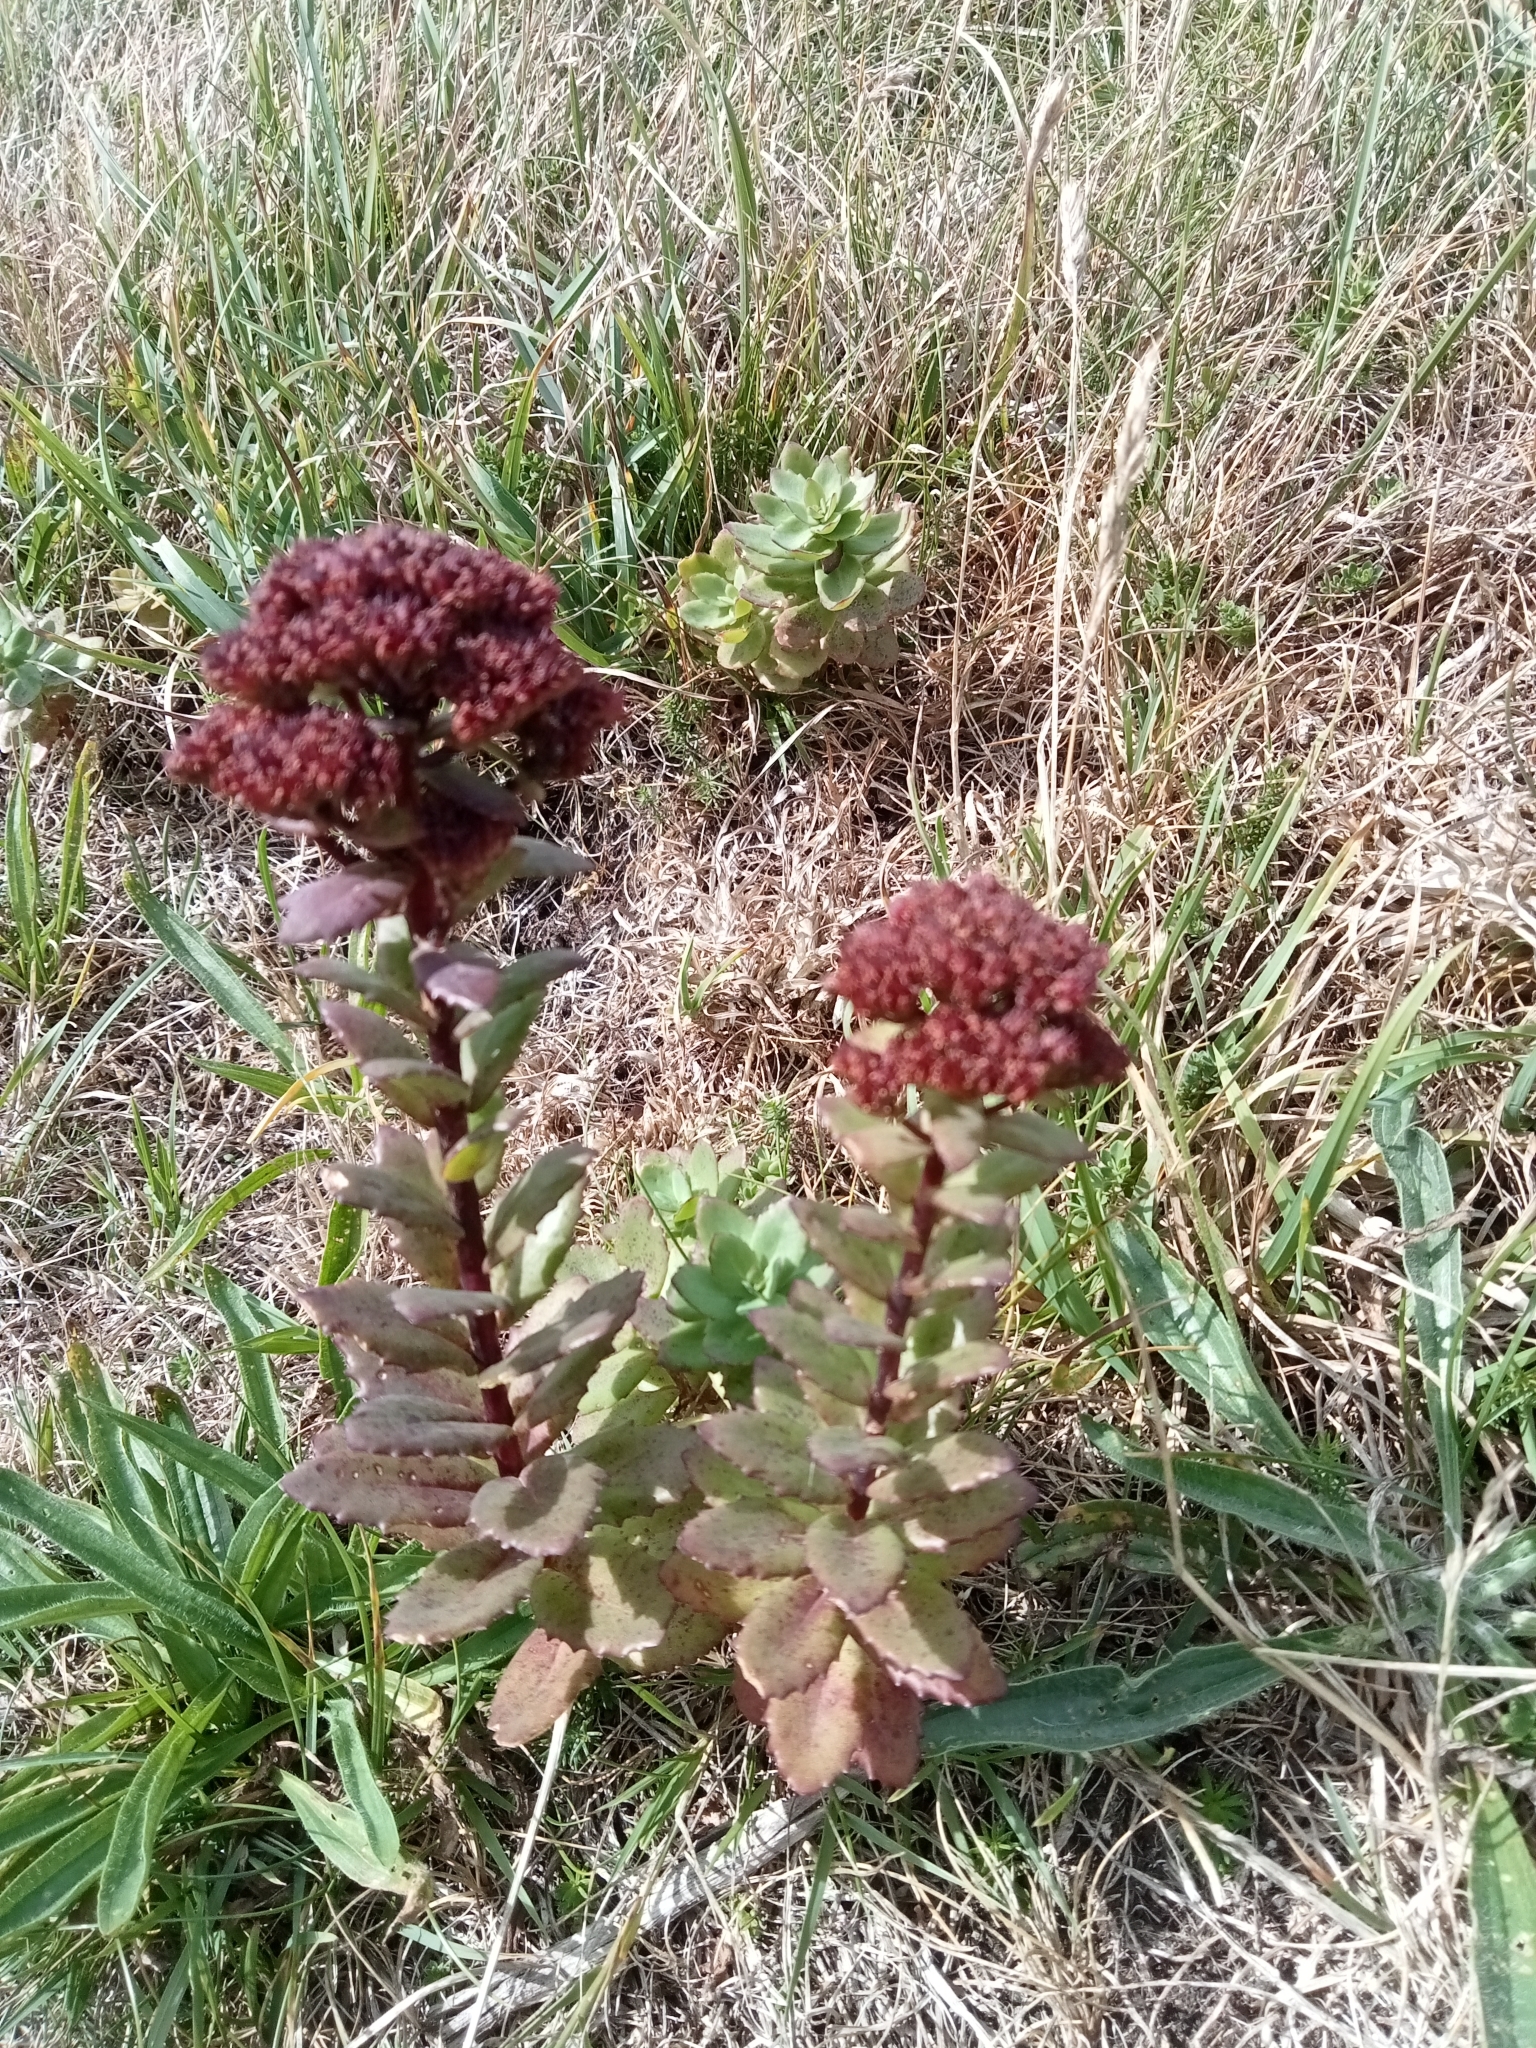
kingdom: Plantae
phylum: Tracheophyta
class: Magnoliopsida
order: Saxifragales
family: Crassulaceae
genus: Hylotelephium
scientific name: Hylotelephium telephium
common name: Live-forever
